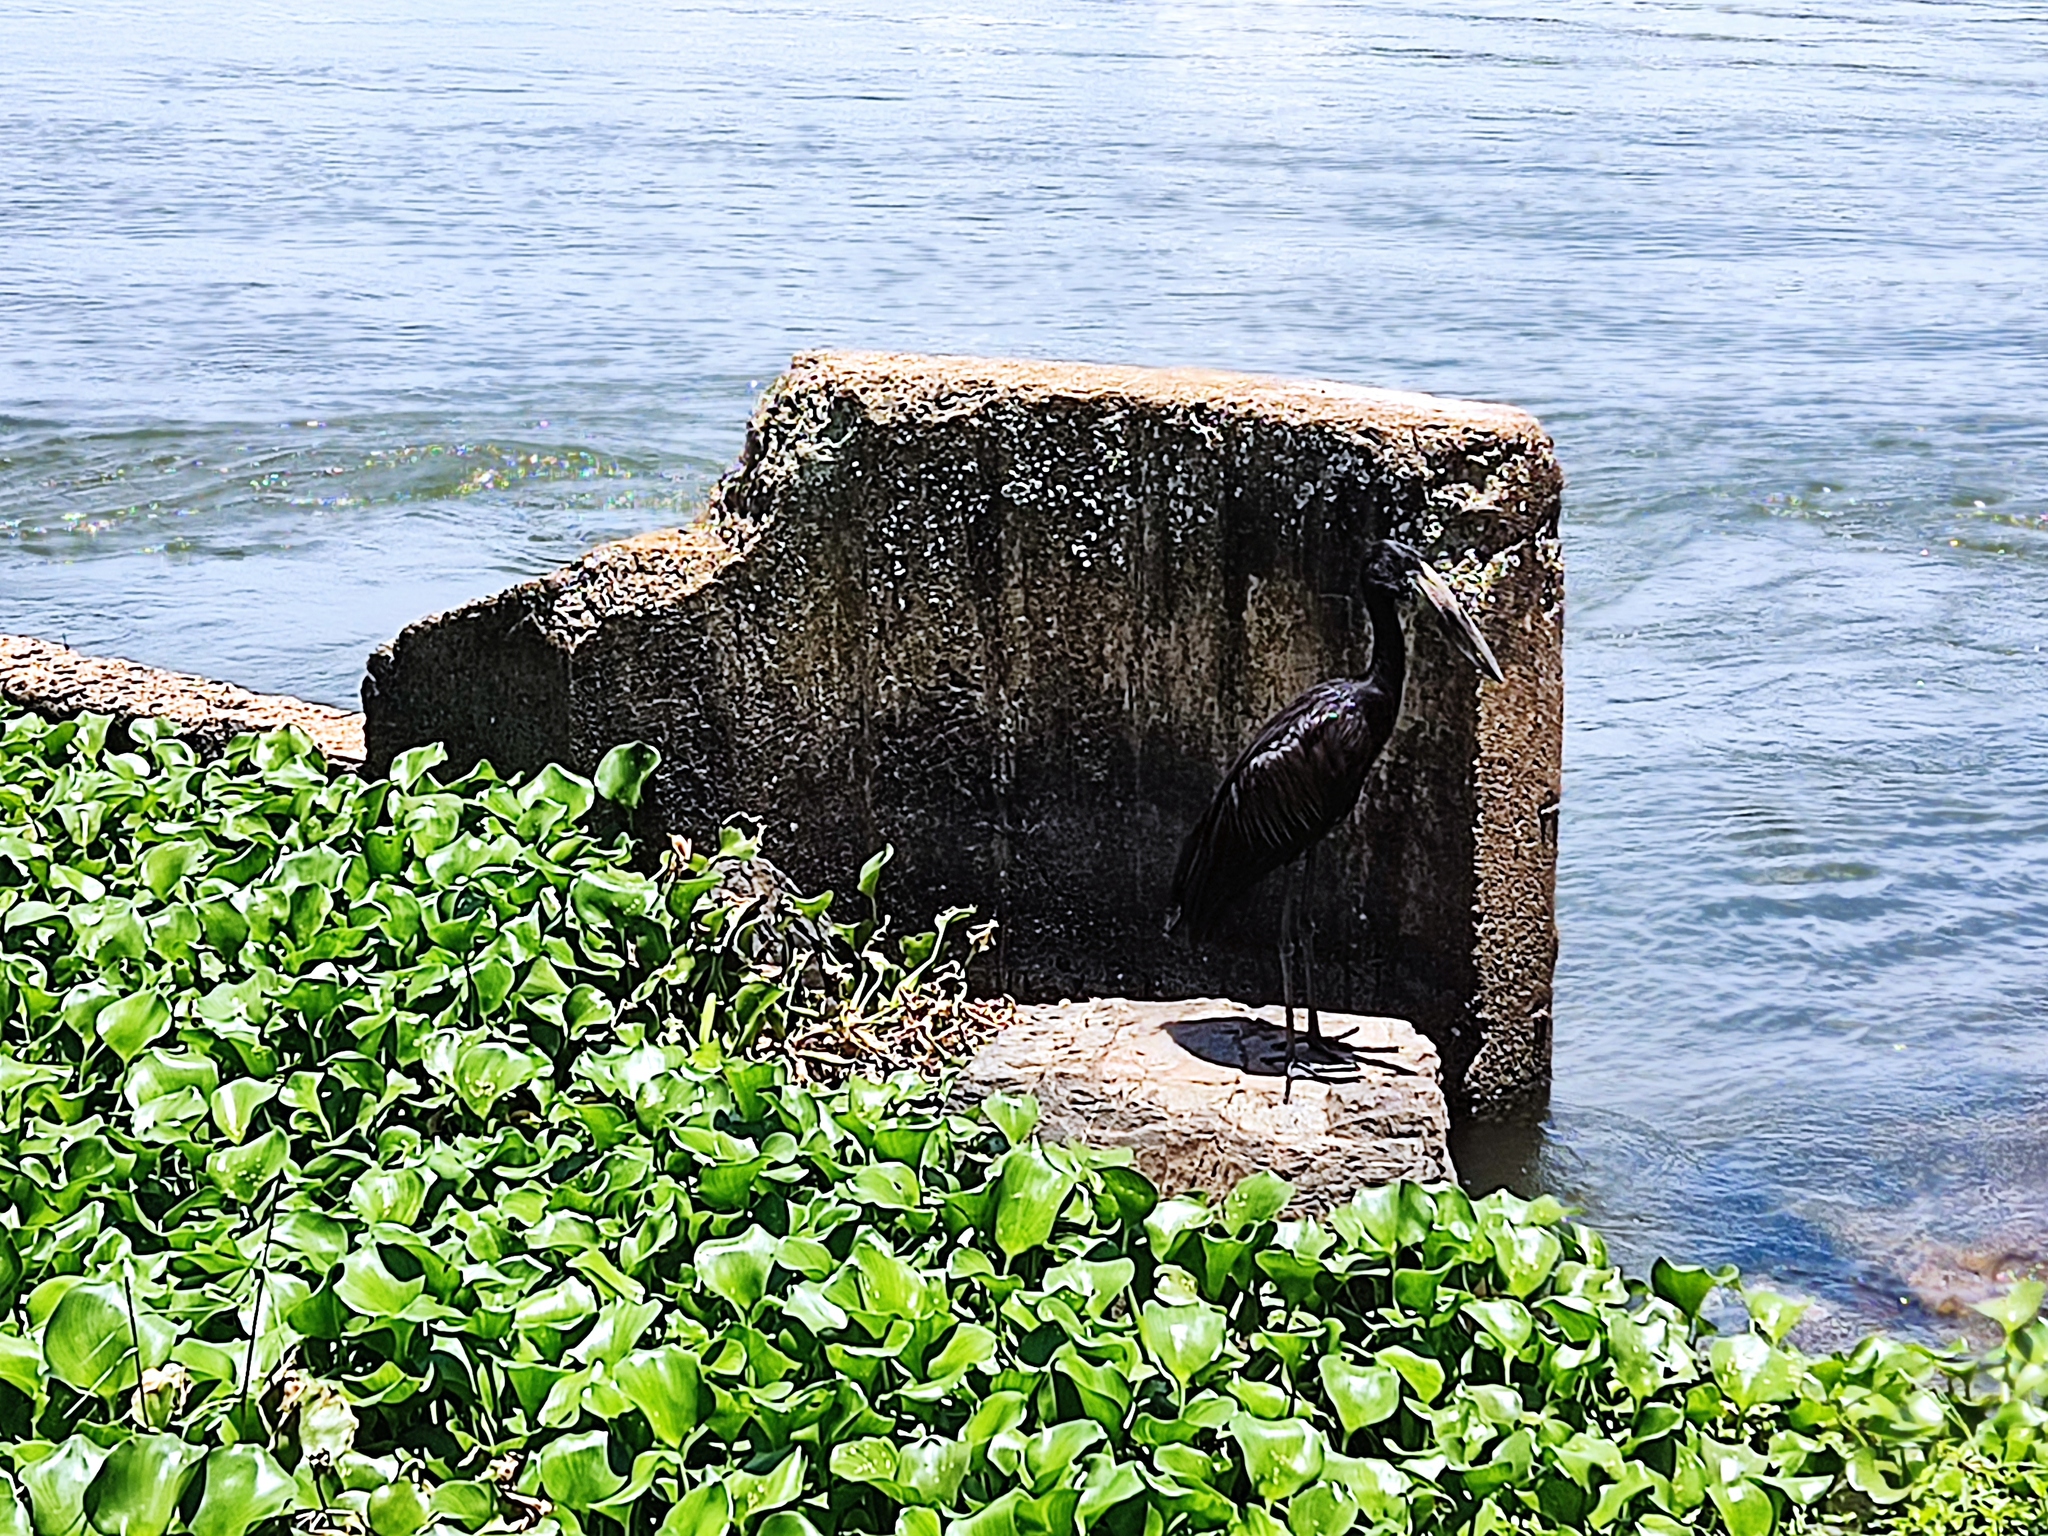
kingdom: Animalia
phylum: Chordata
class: Aves
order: Ciconiiformes
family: Ciconiidae
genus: Anastomus
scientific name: Anastomus lamelligerus
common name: African openbill
